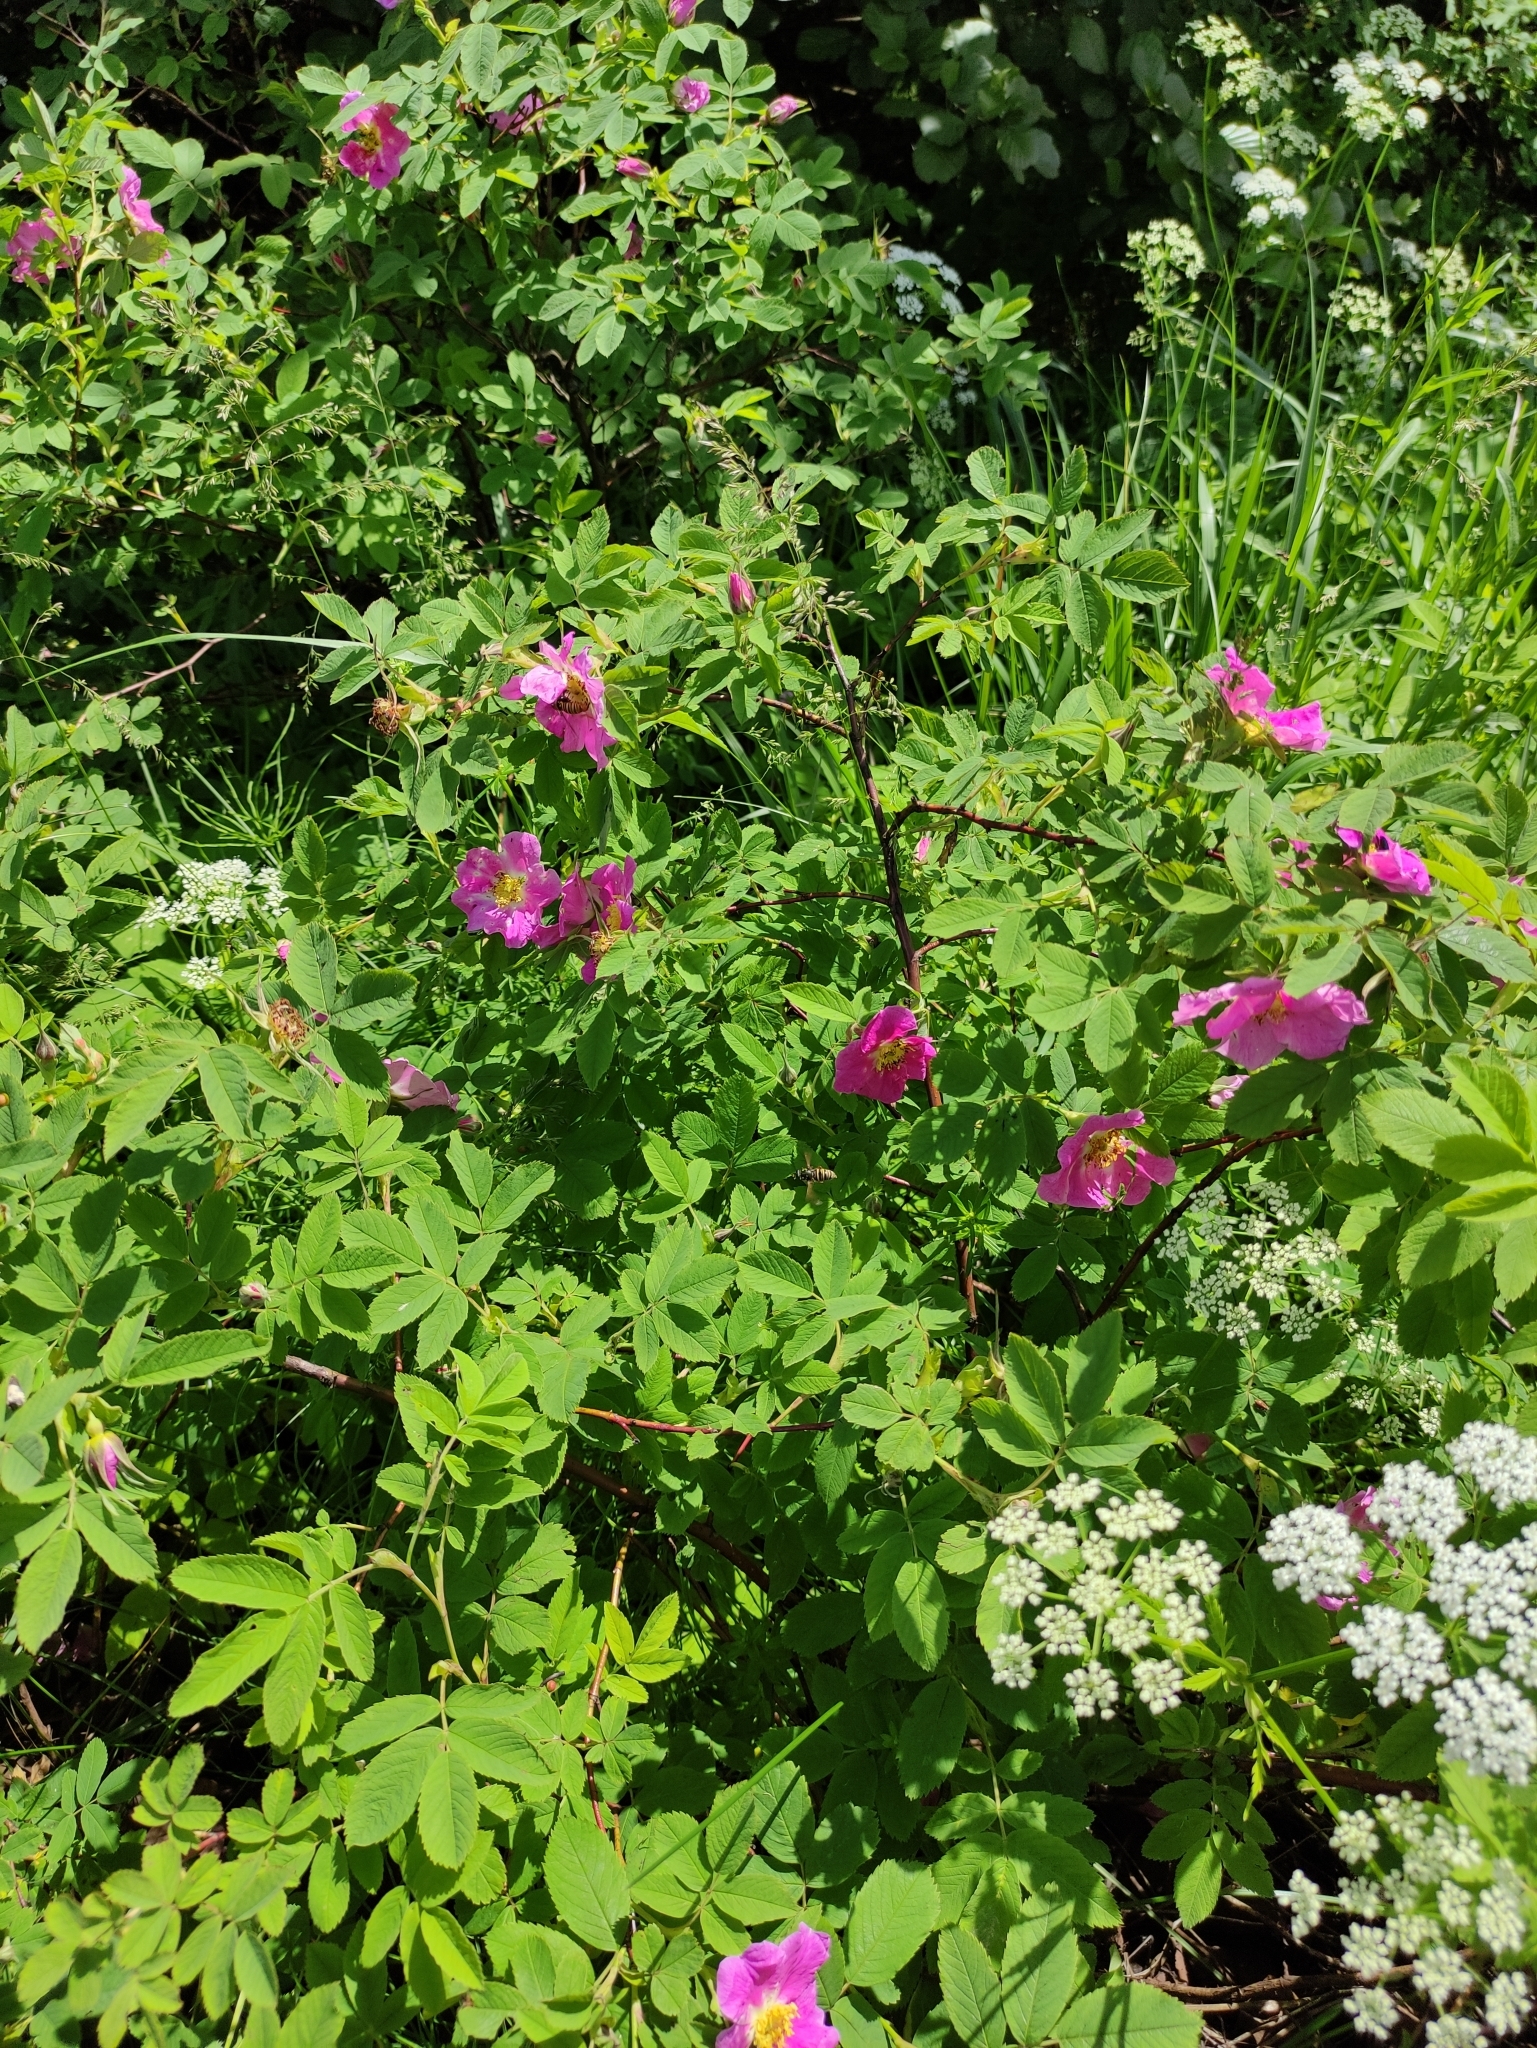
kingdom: Plantae
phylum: Tracheophyta
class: Magnoliopsida
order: Rosales
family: Rosaceae
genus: Rosa
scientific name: Rosa majalis
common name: Cinnamon rose
